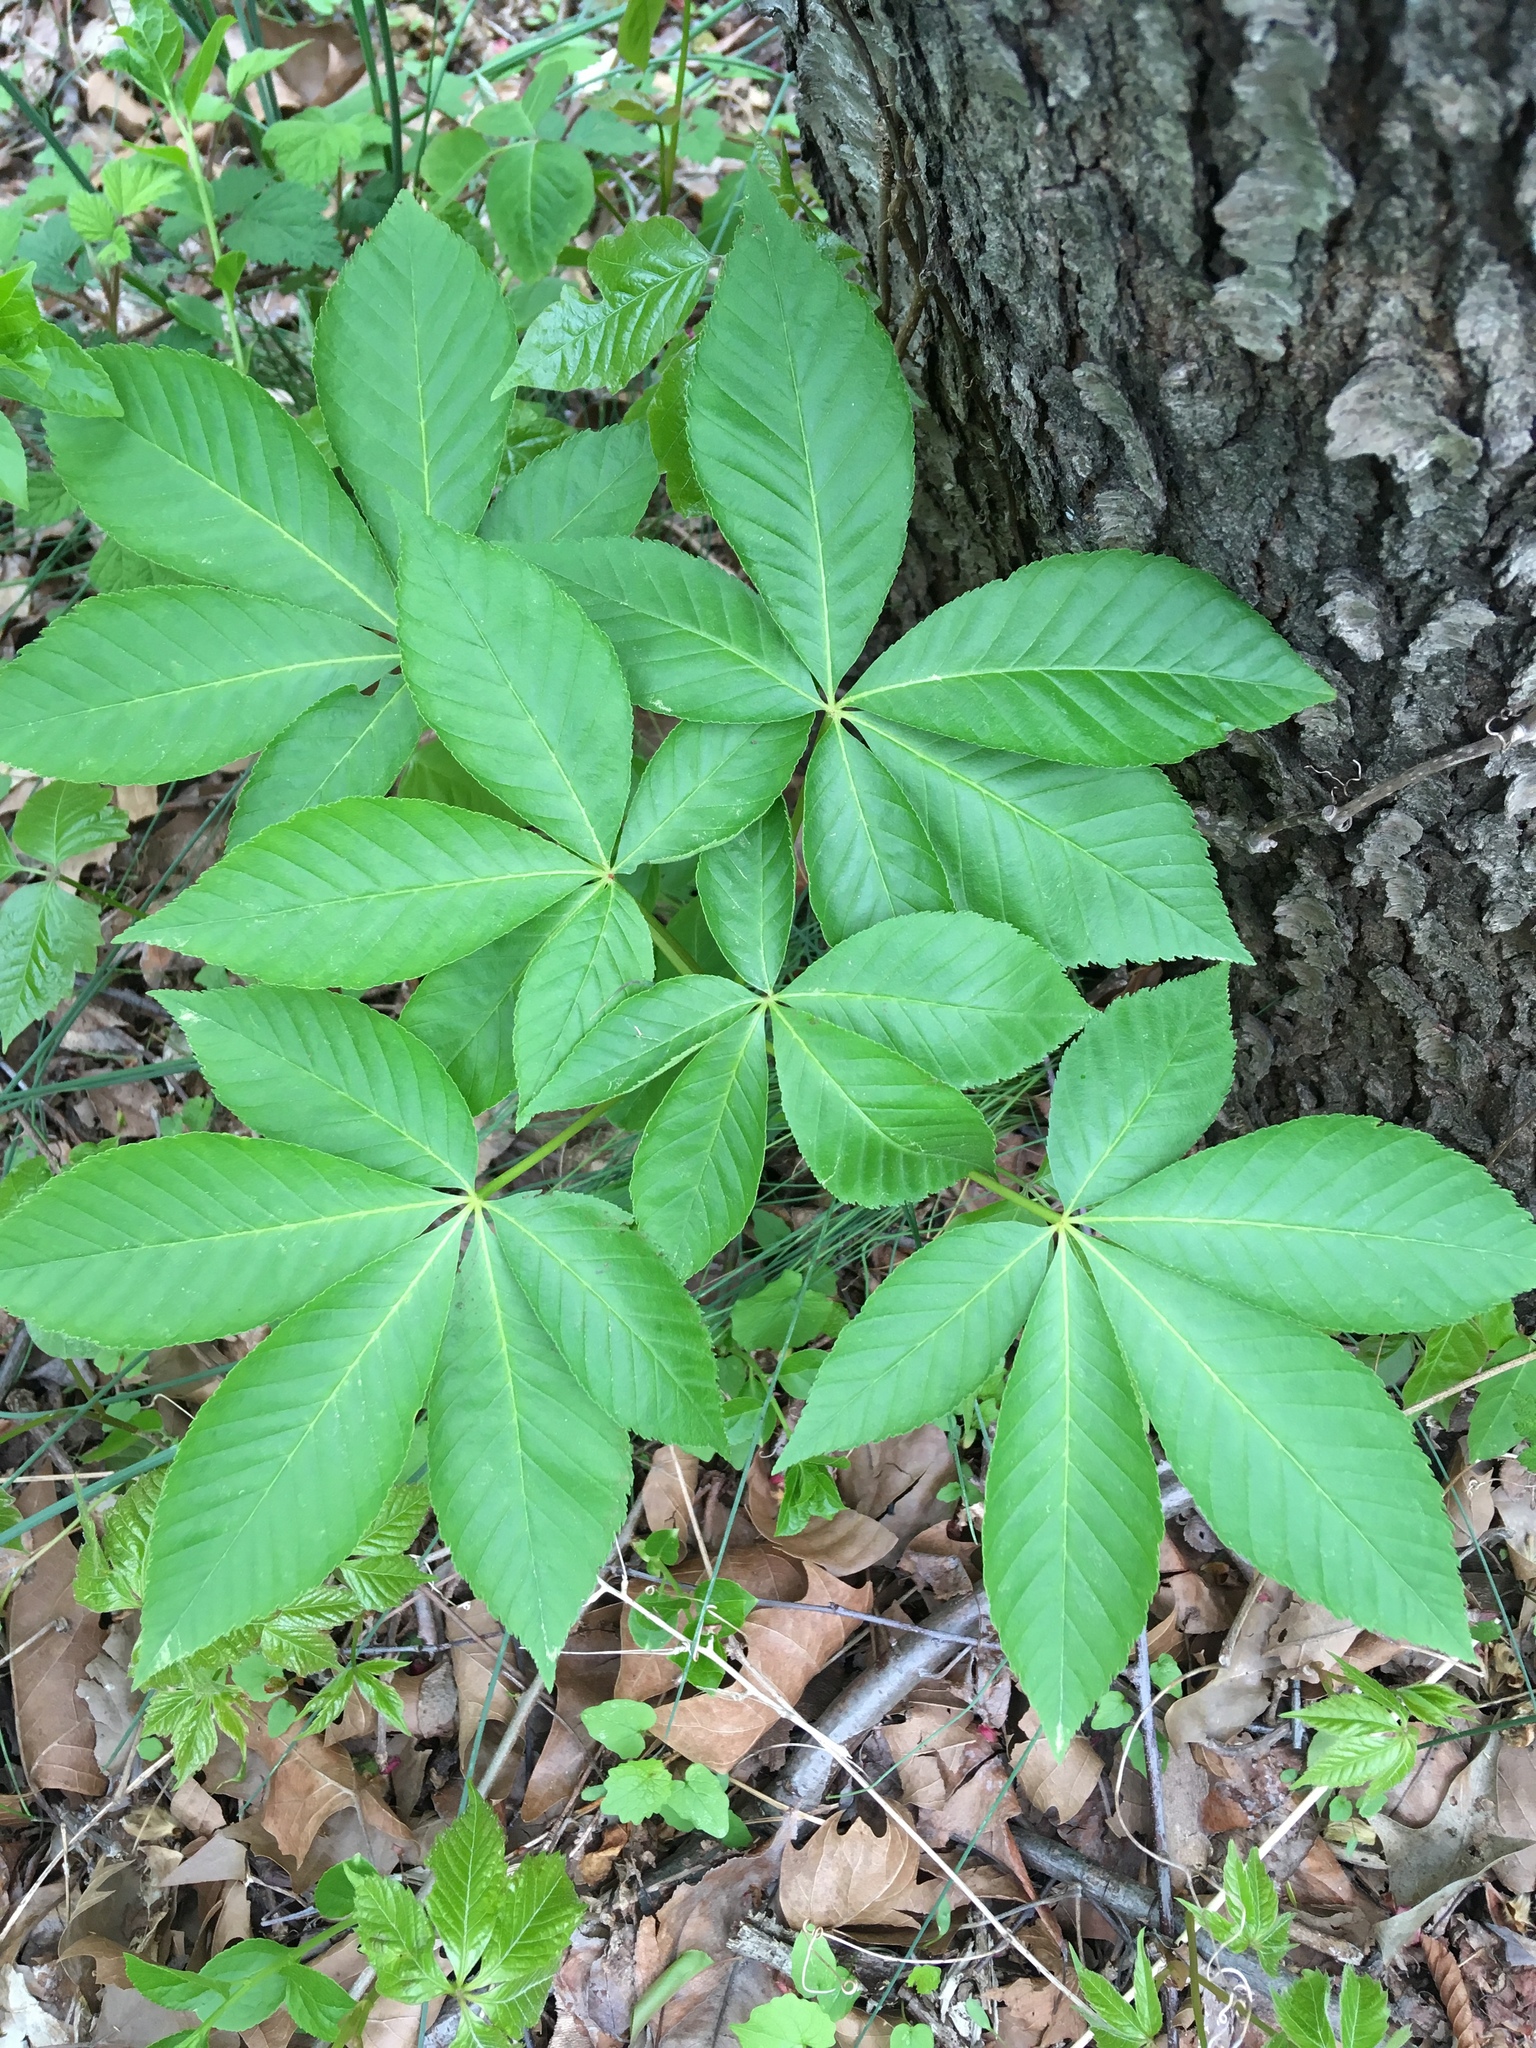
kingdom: Plantae
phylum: Tracheophyta
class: Magnoliopsida
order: Sapindales
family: Sapindaceae
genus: Aesculus
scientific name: Aesculus glabra
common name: Ohio buckeye
